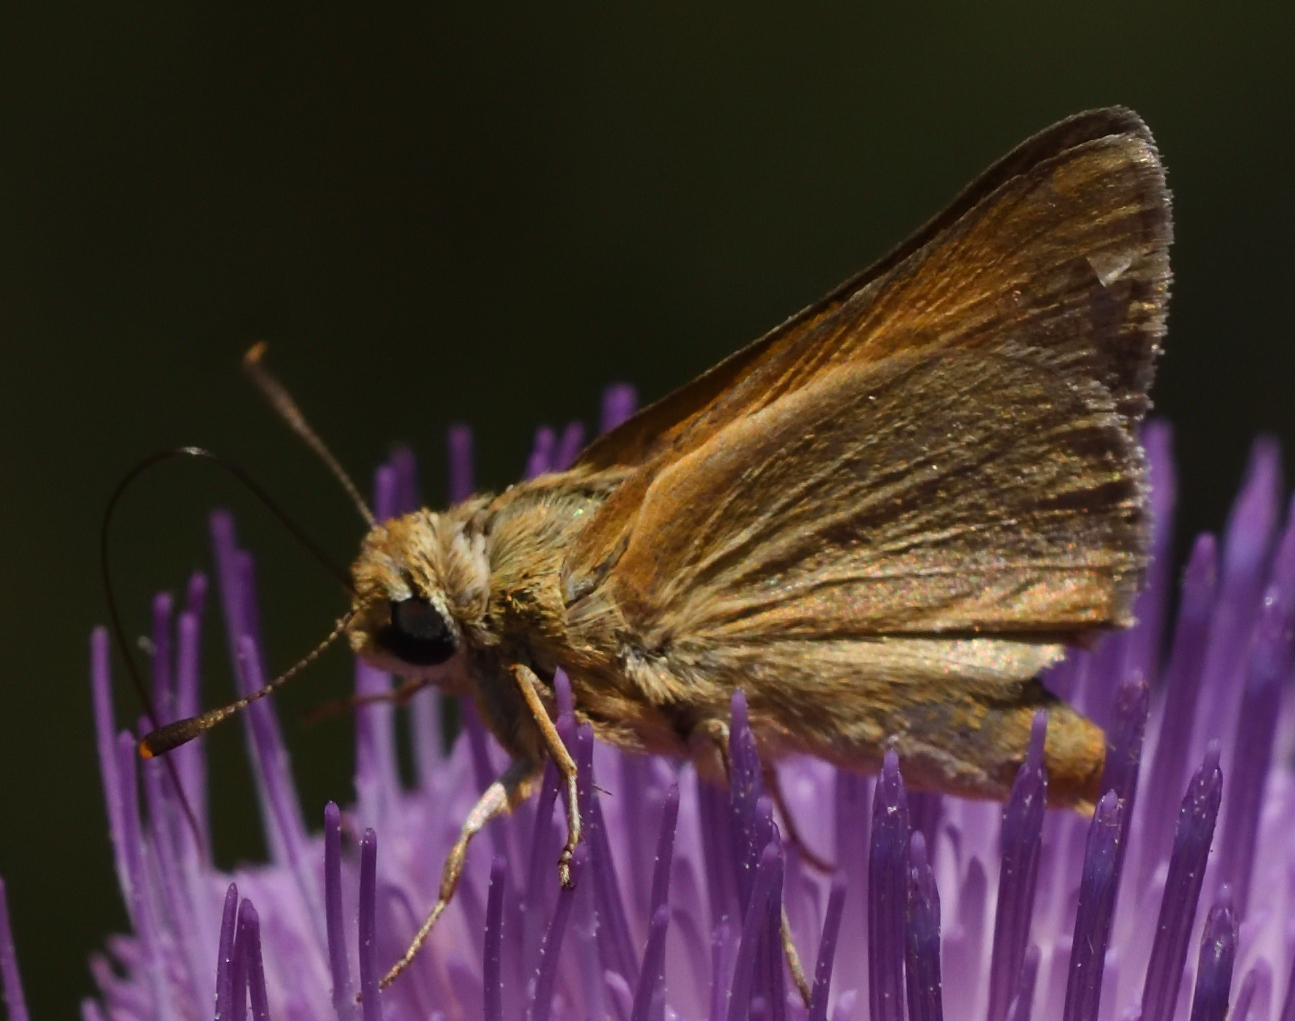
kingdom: Animalia
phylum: Arthropoda
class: Insecta
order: Lepidoptera
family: Hesperiidae
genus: Atrytone
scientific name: Atrytone arogos
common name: Arogos skipper
